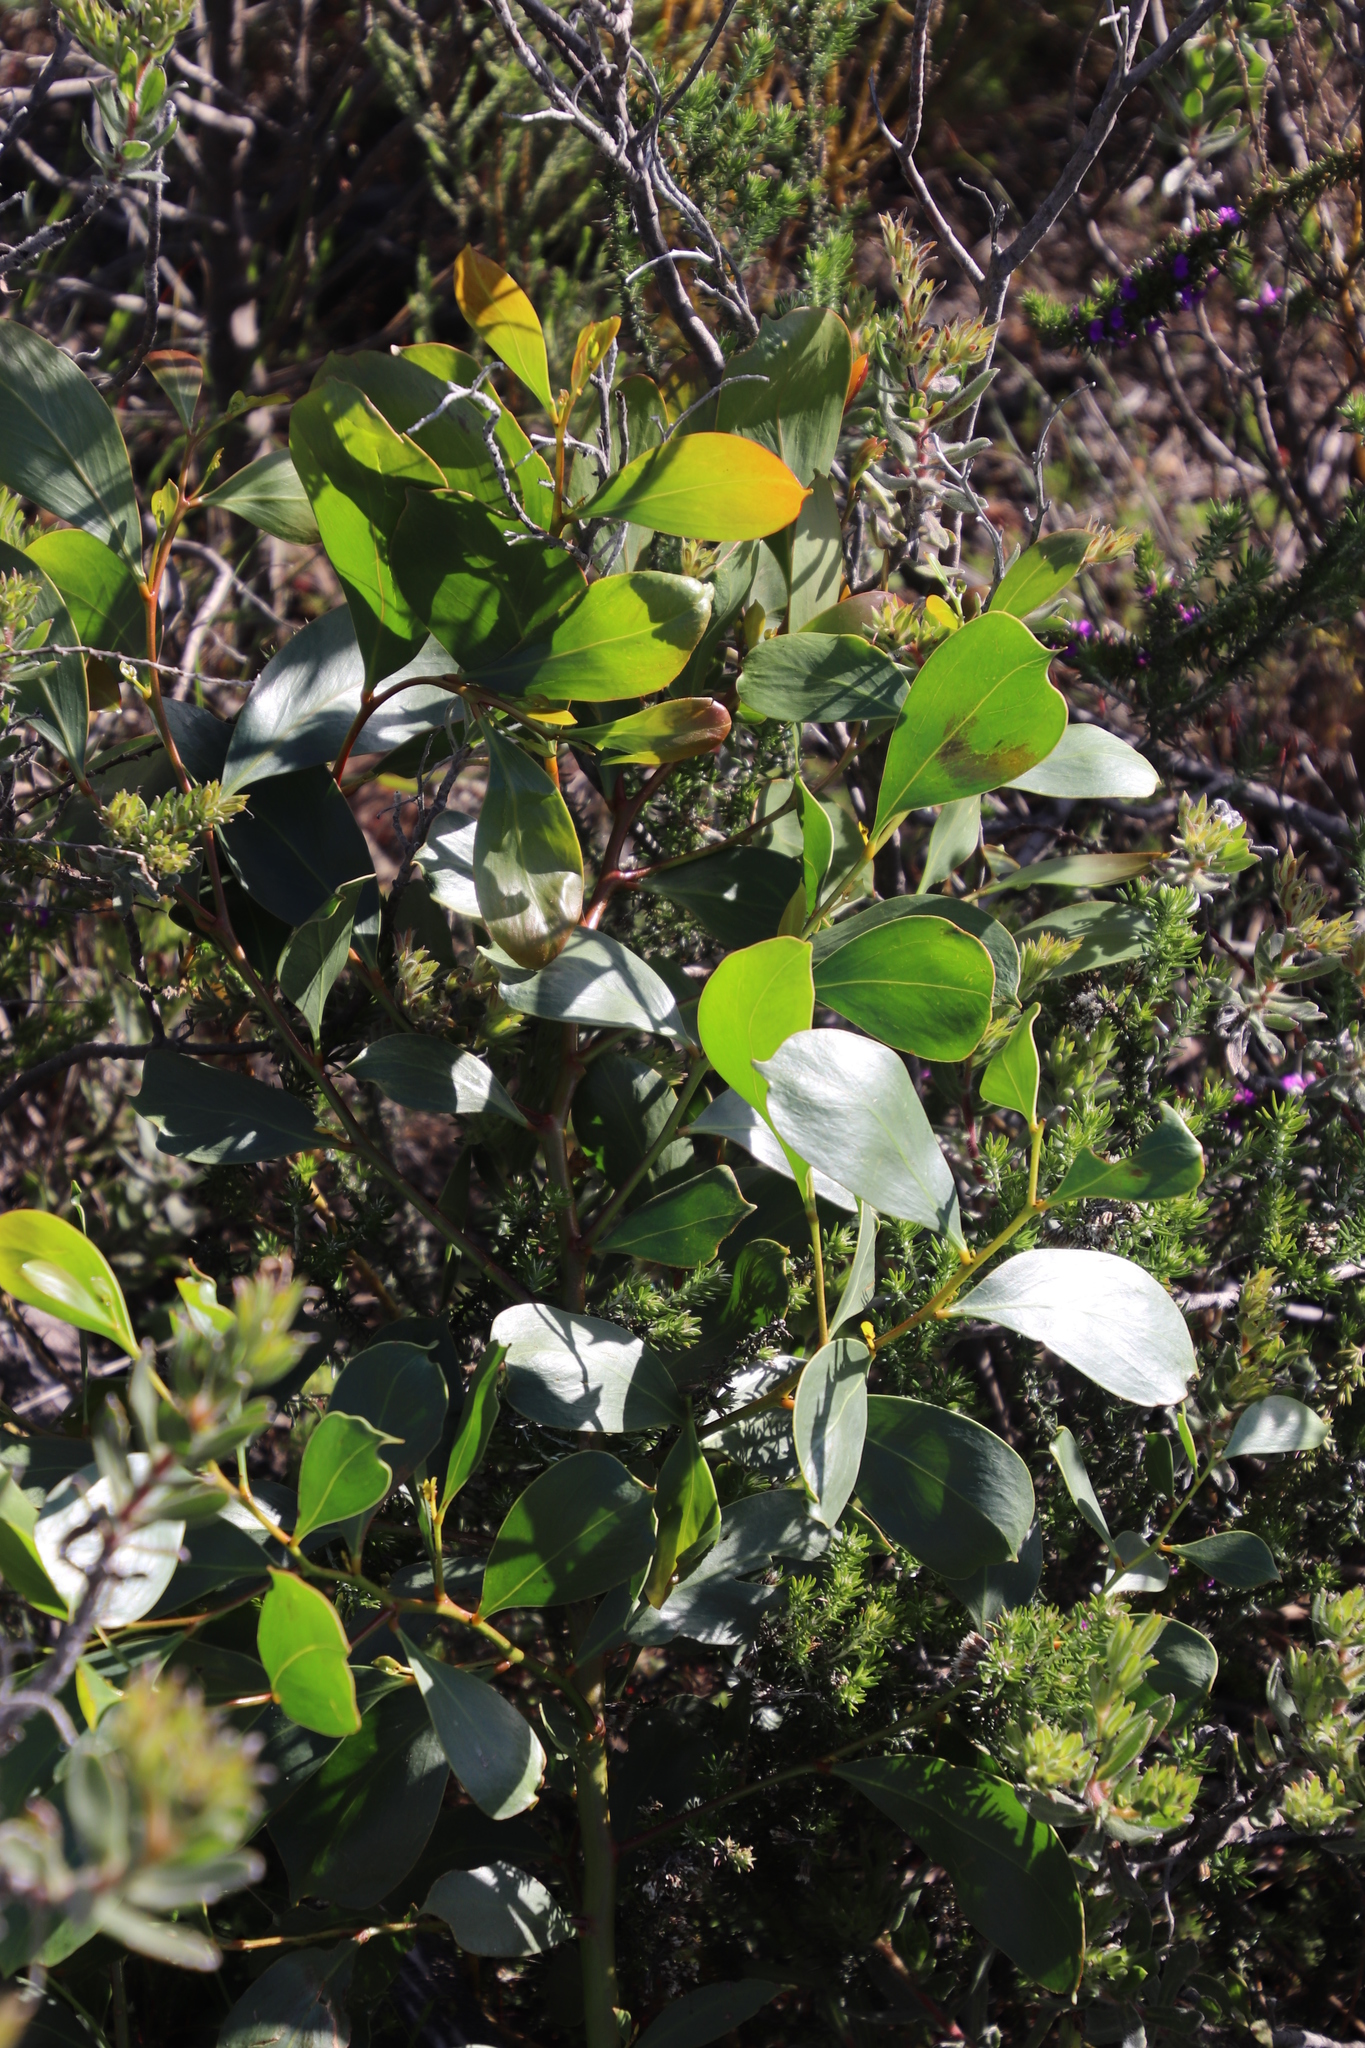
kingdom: Plantae
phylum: Tracheophyta
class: Magnoliopsida
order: Fabales
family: Fabaceae
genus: Acacia
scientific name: Acacia pycnantha
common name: Golden wattle
